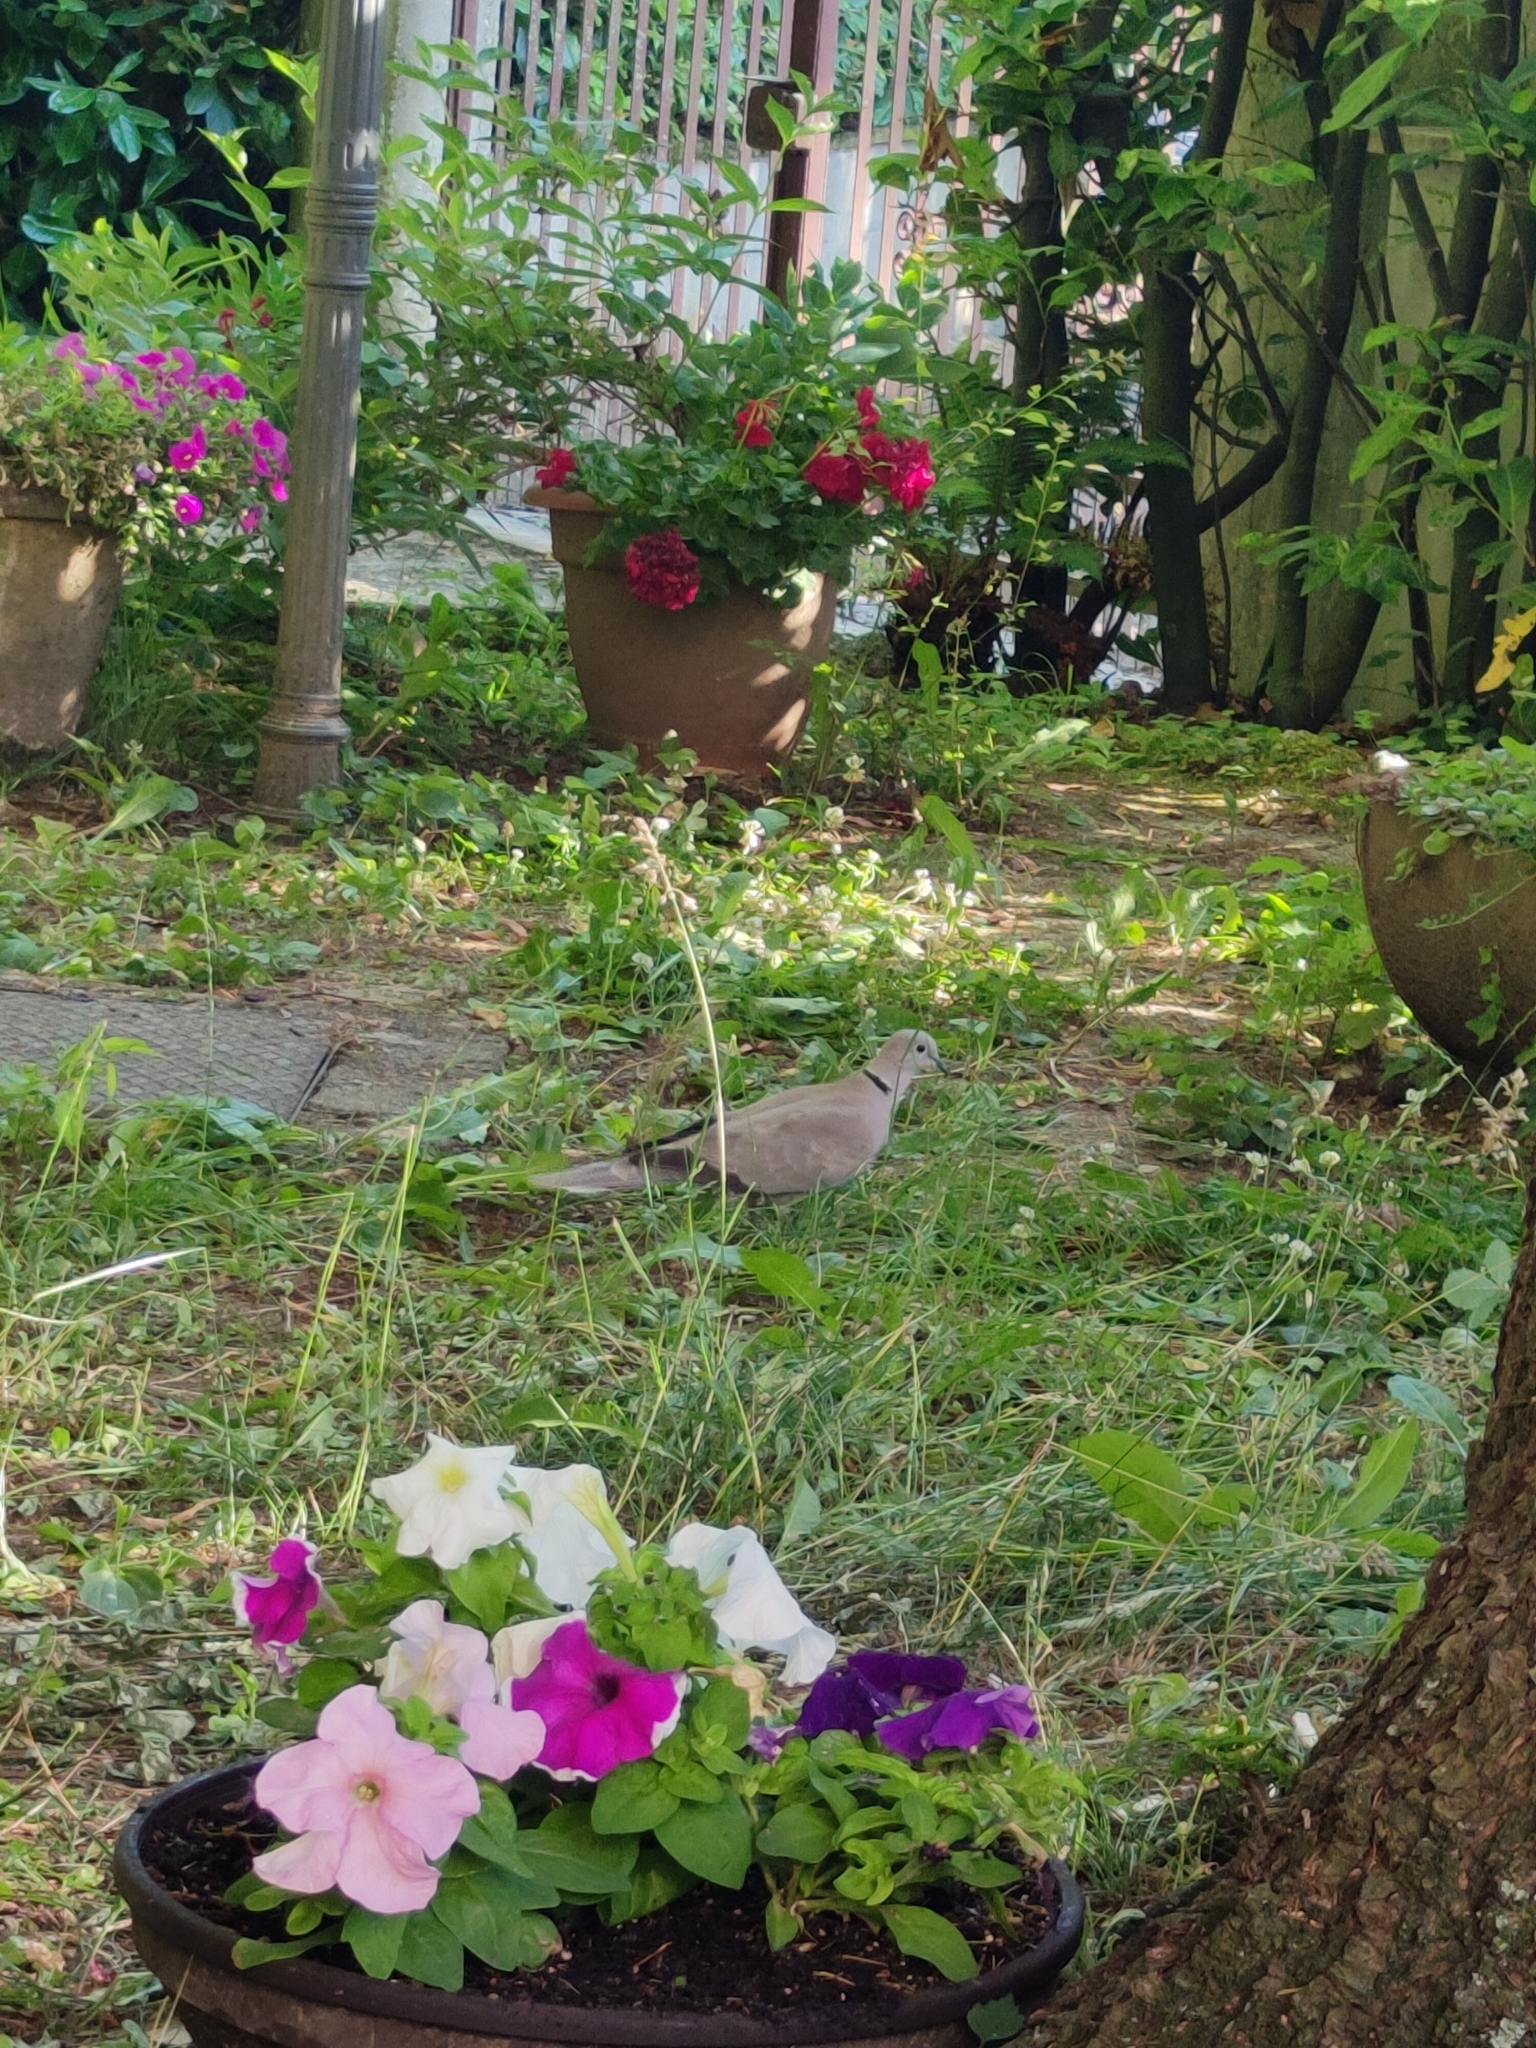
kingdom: Animalia
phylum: Chordata
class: Aves
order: Columbiformes
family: Columbidae
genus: Streptopelia
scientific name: Streptopelia decaocto
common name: Eurasian collared dove
